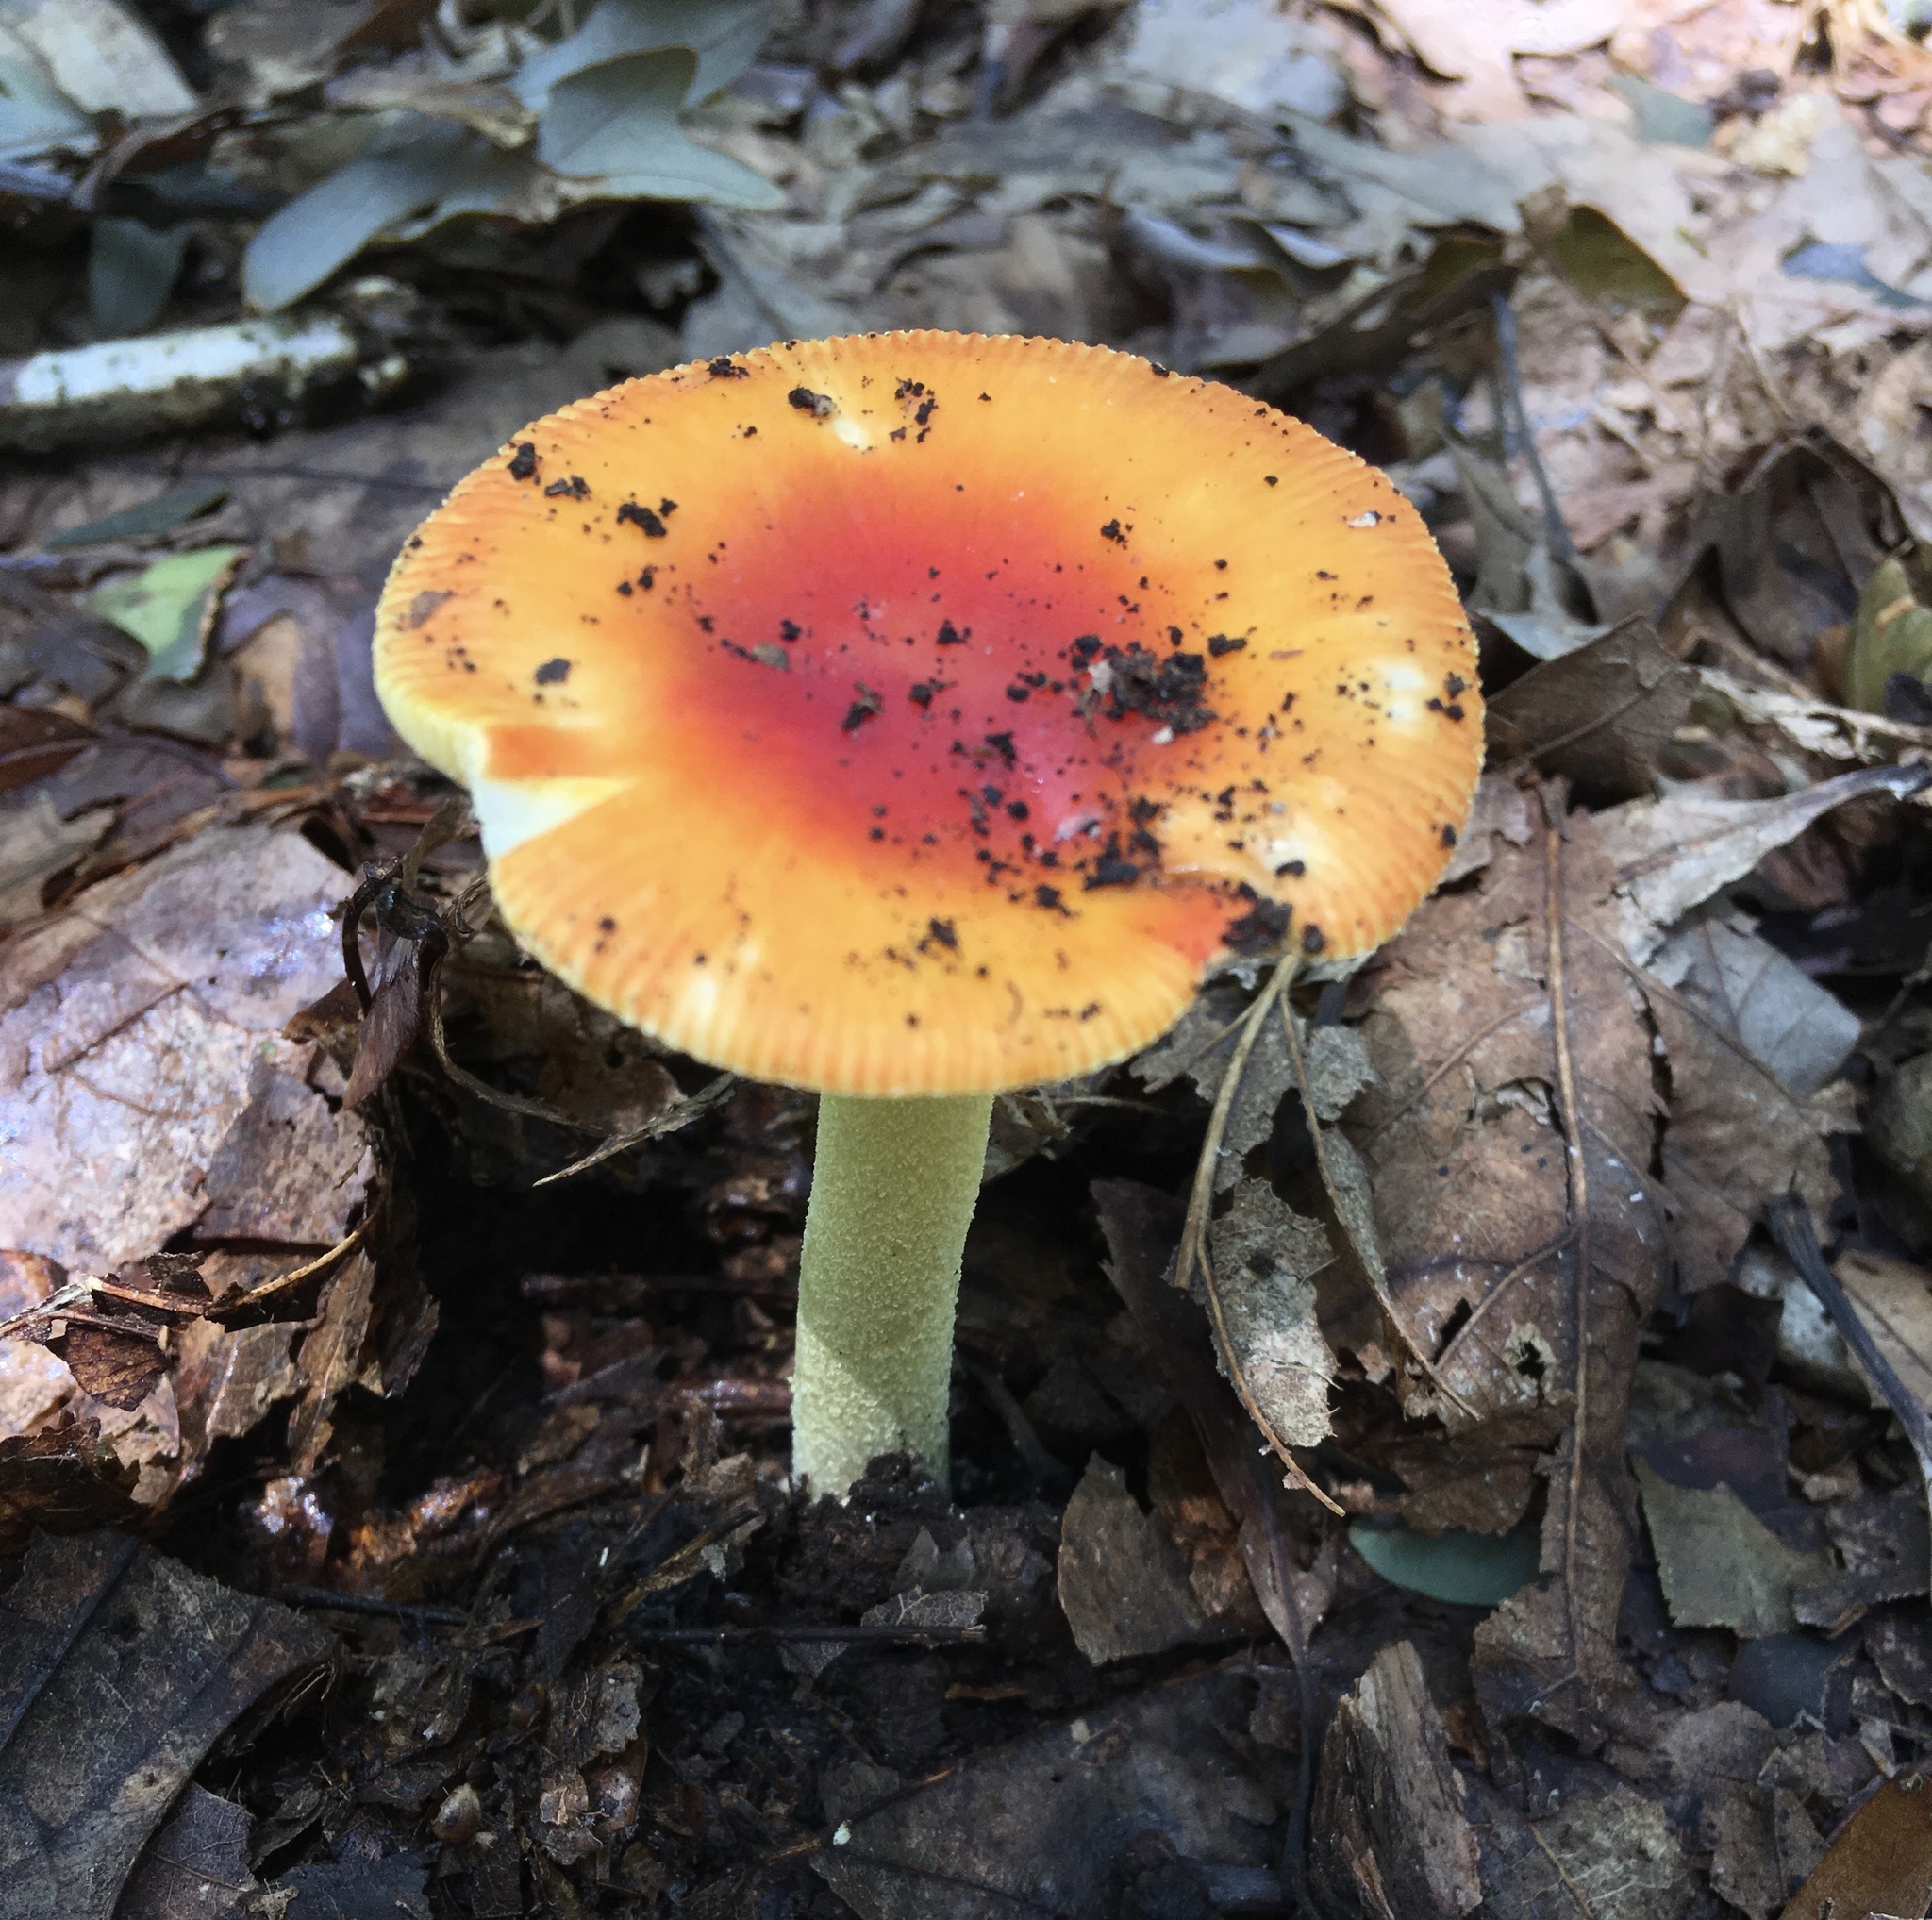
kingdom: Fungi
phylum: Basidiomycota
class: Agaricomycetes
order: Agaricales
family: Amanitaceae
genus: Amanita
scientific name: Amanita parcivolvata
